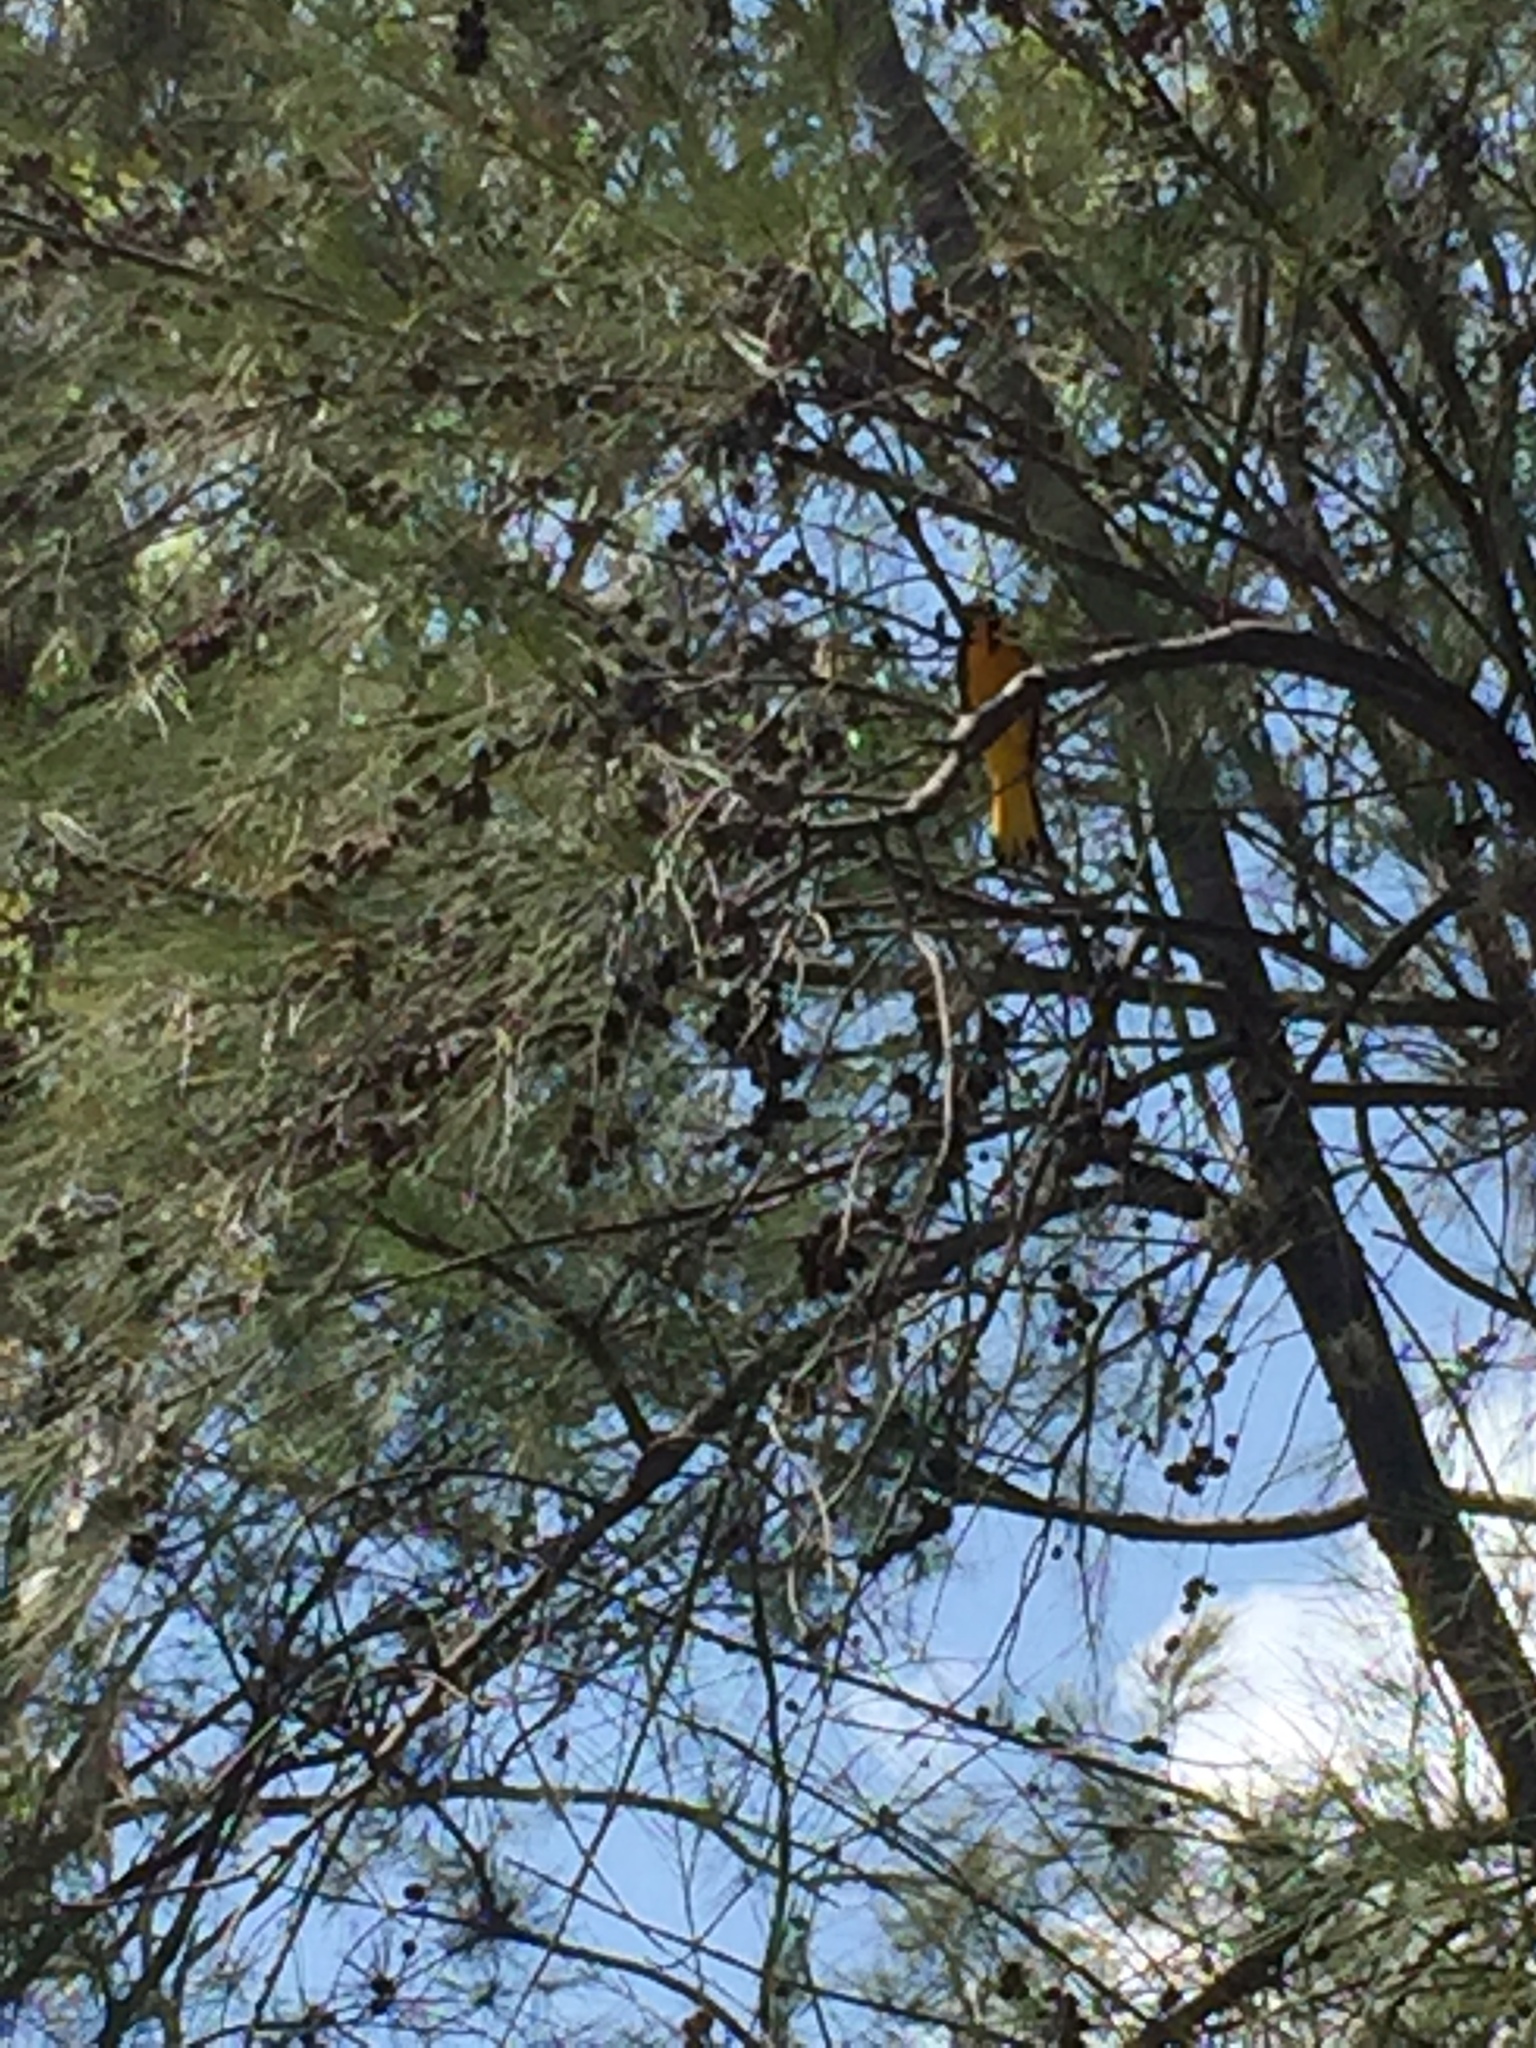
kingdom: Animalia
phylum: Chordata
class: Aves
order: Passeriformes
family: Icteridae
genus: Icterus
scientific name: Icterus abeillei
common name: Black-backed oriole
